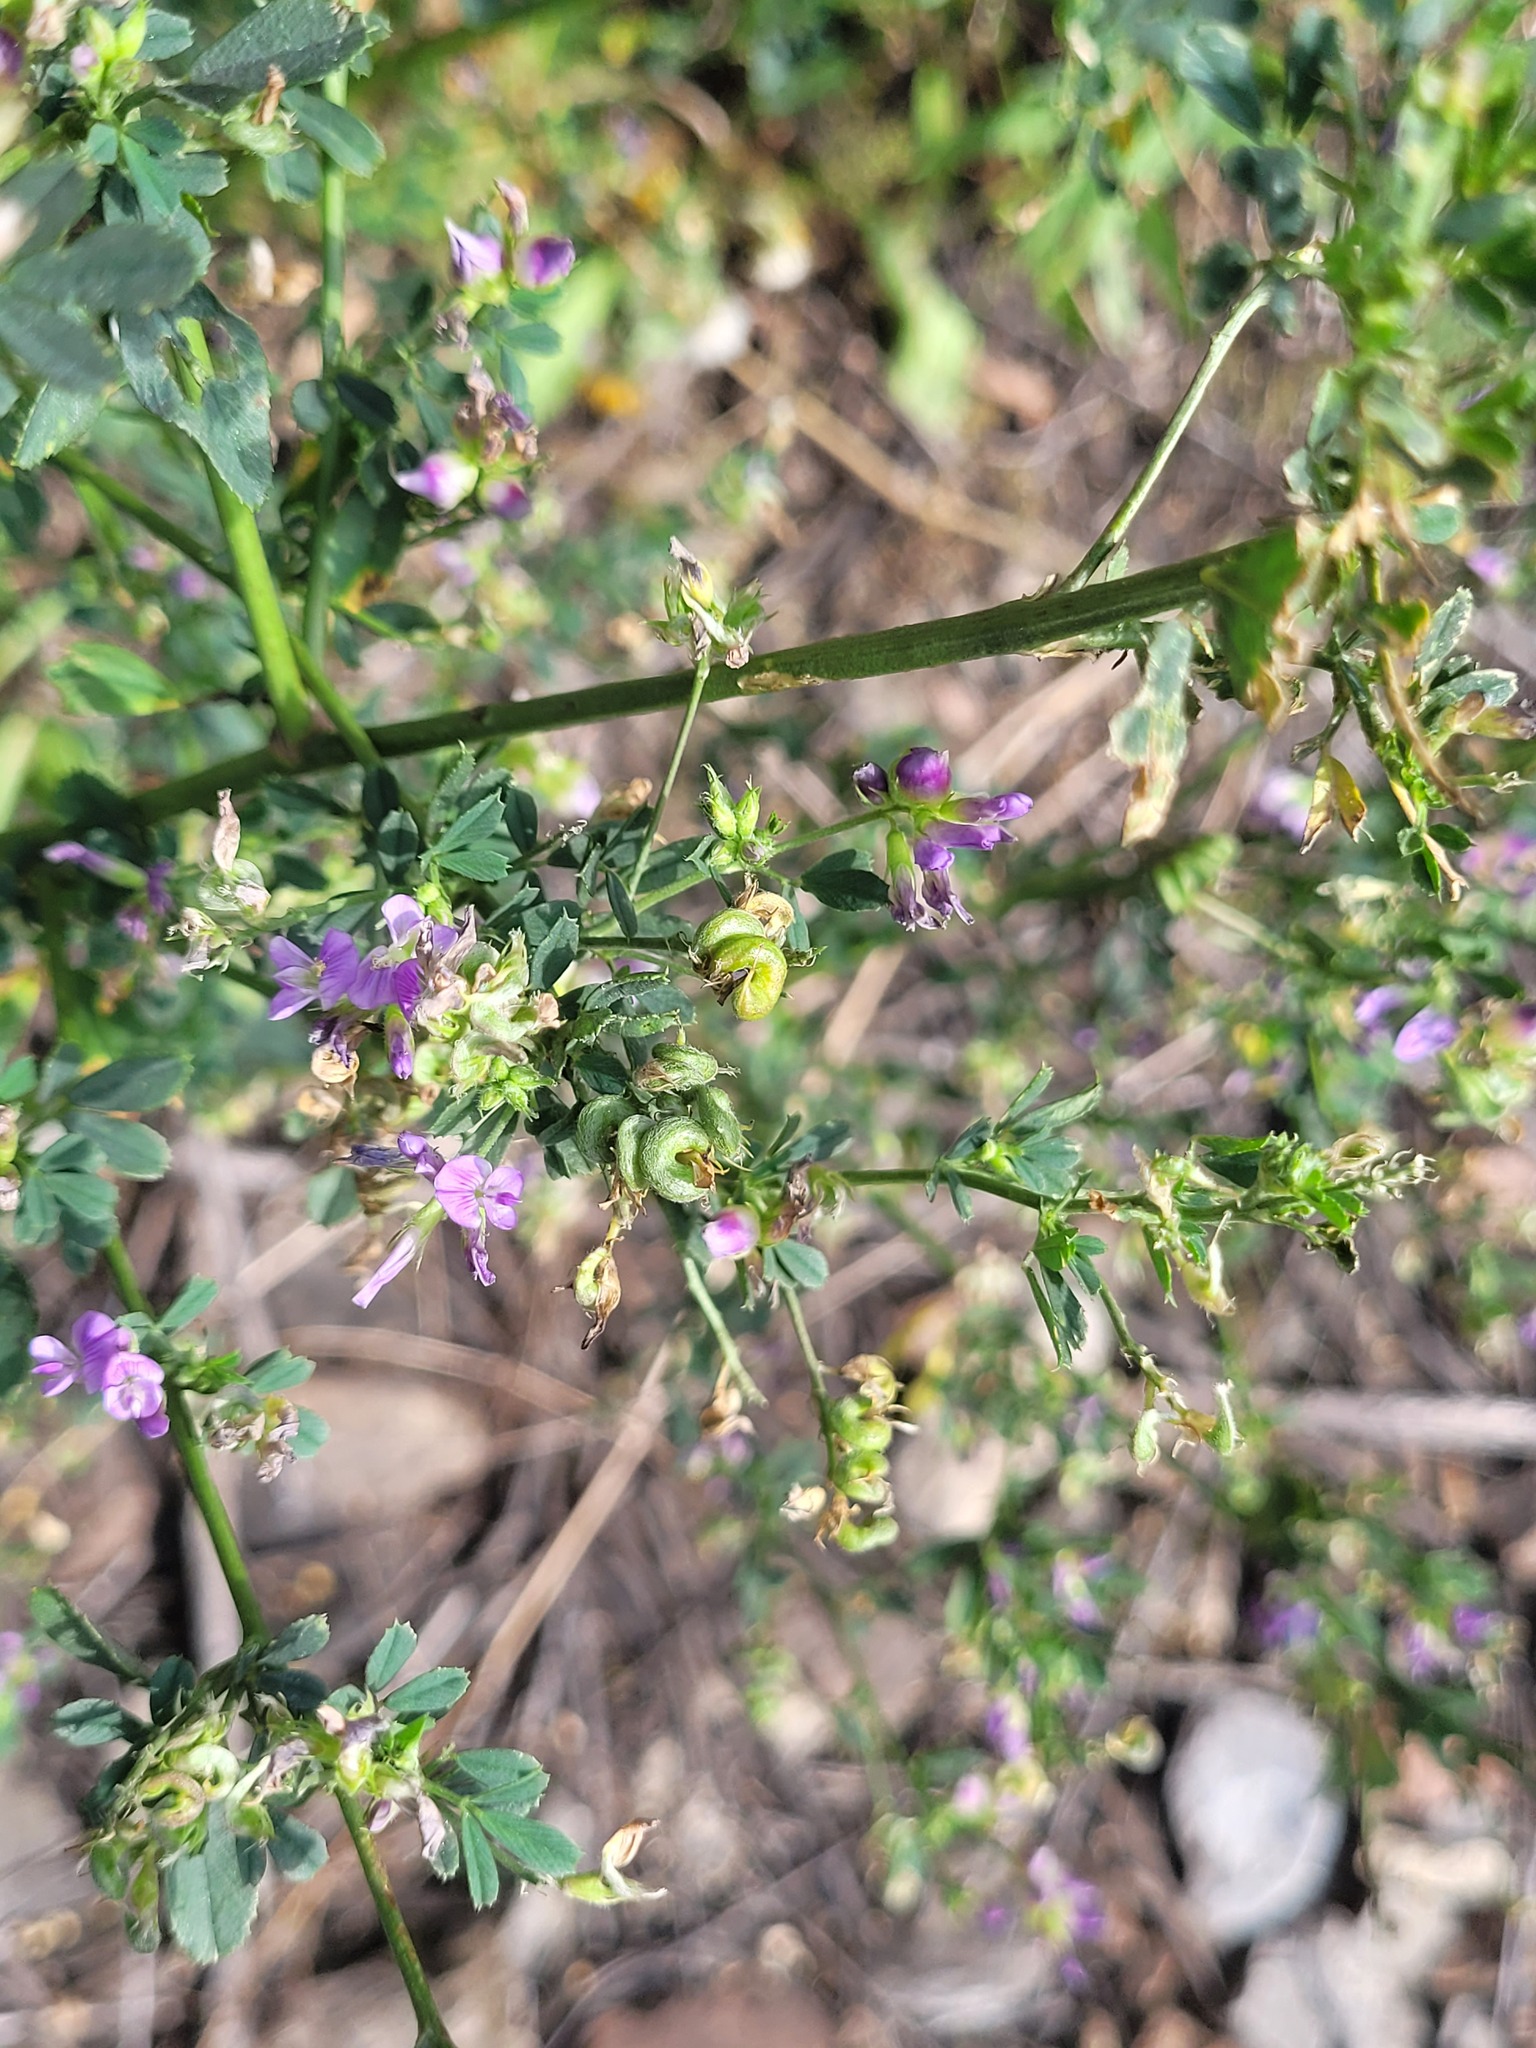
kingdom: Plantae
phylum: Tracheophyta
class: Magnoliopsida
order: Fabales
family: Fabaceae
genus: Medicago
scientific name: Medicago sativa
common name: Alfalfa
